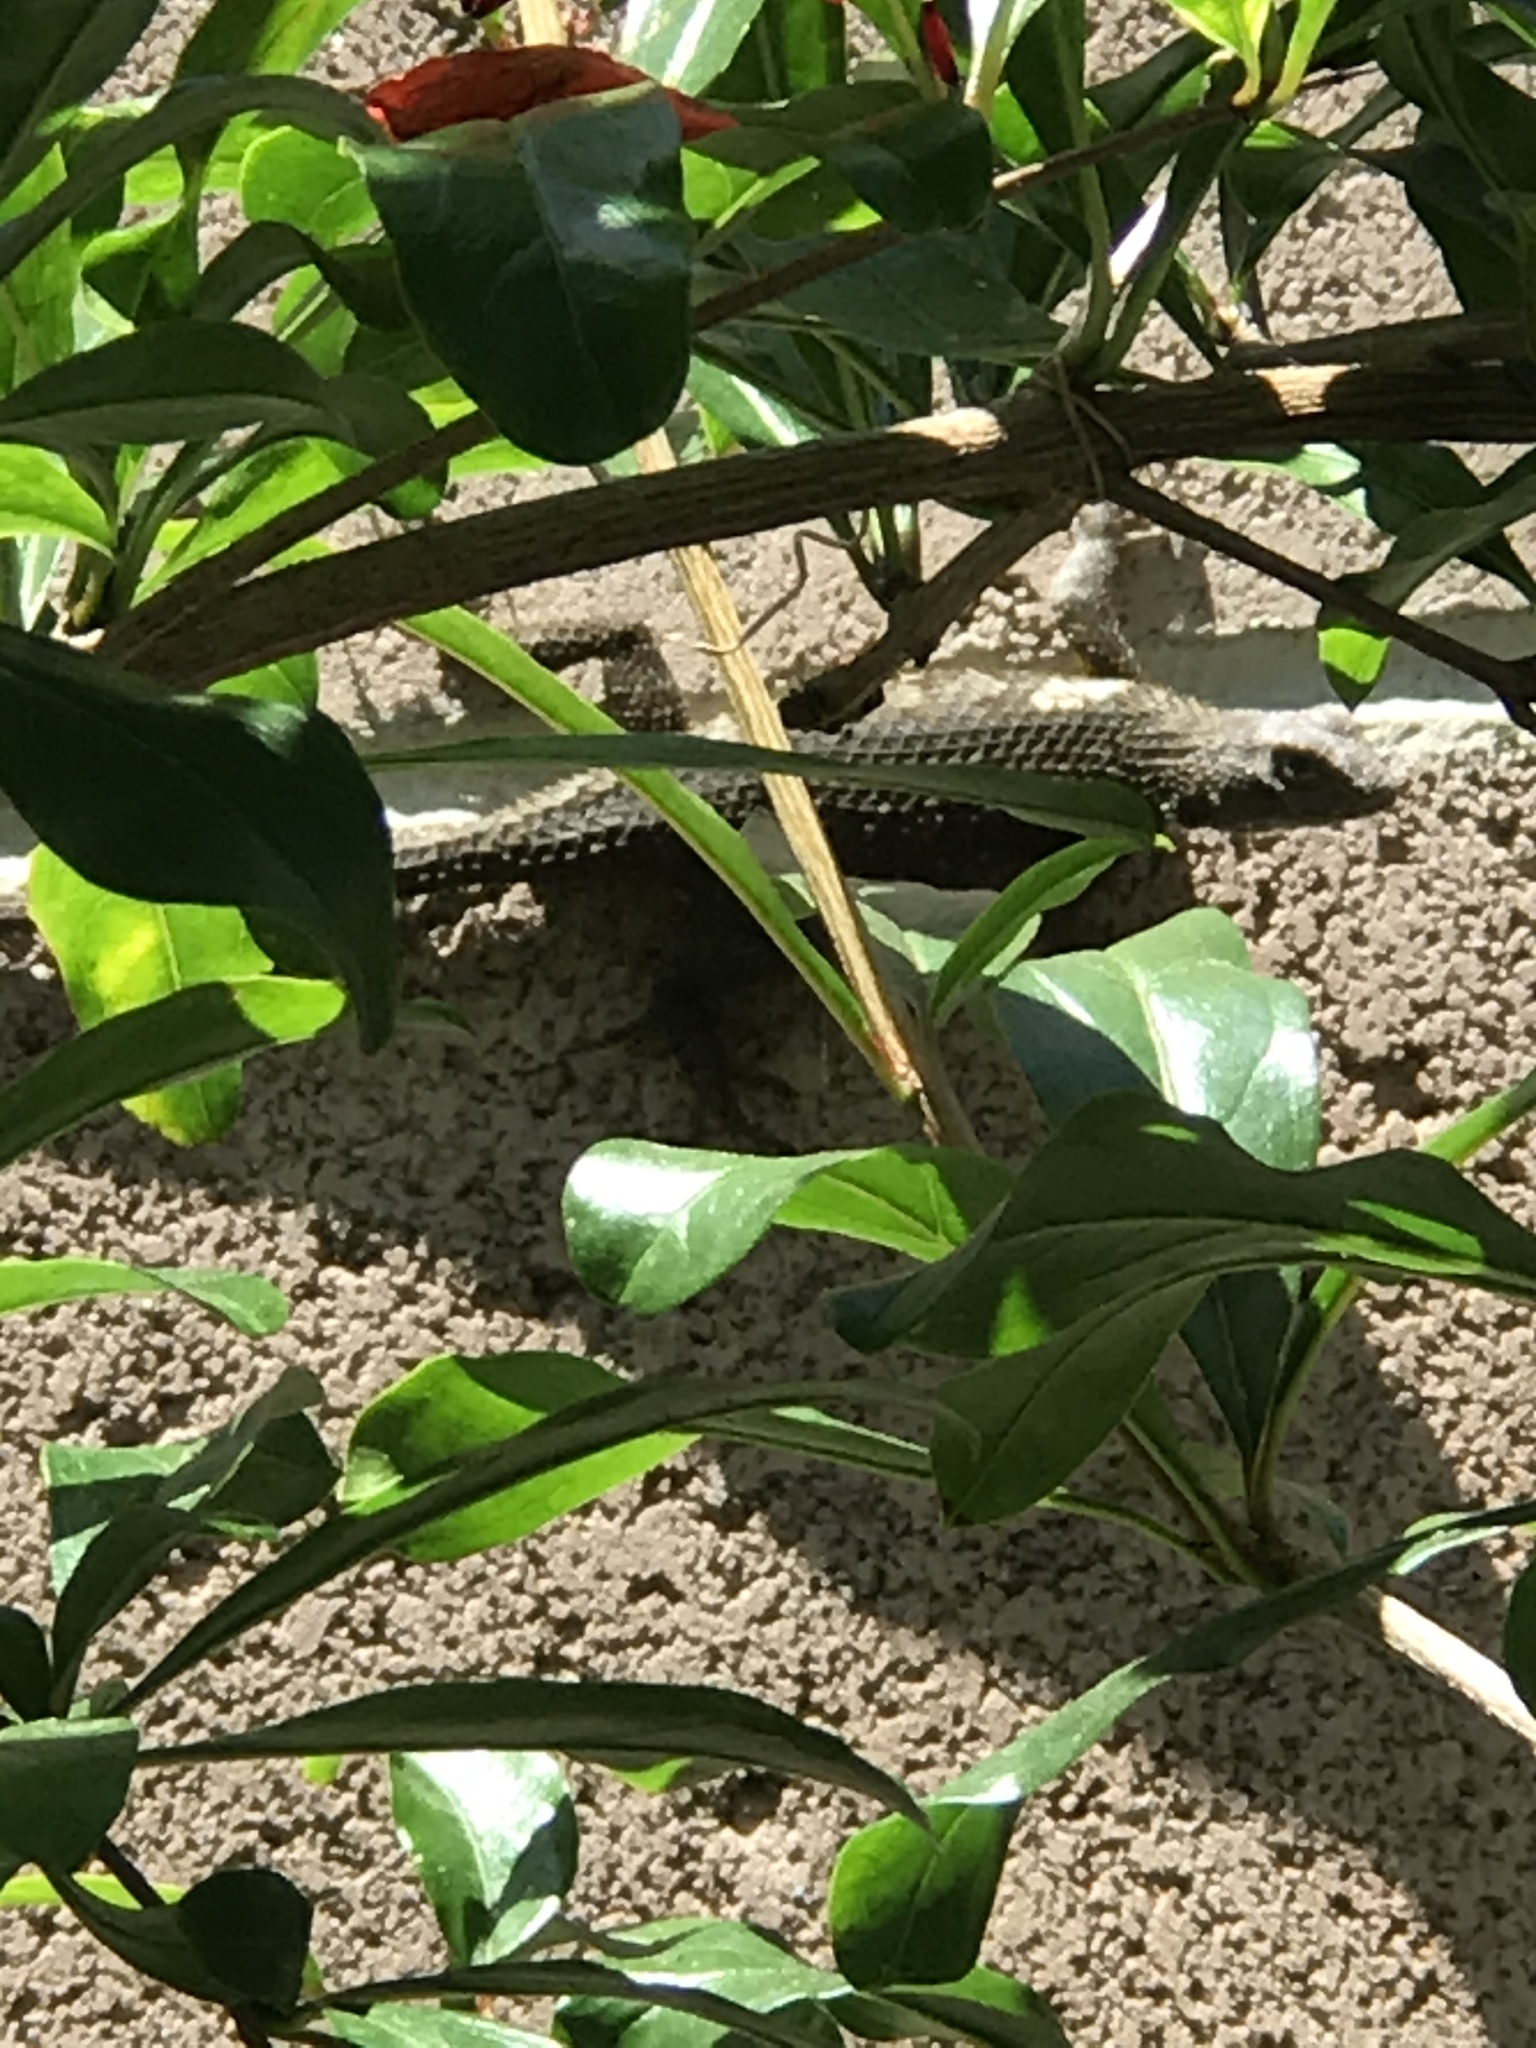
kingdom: Animalia
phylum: Chordata
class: Squamata
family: Phrynosomatidae
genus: Sceloporus
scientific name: Sceloporus occidentalis
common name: Western fence lizard
